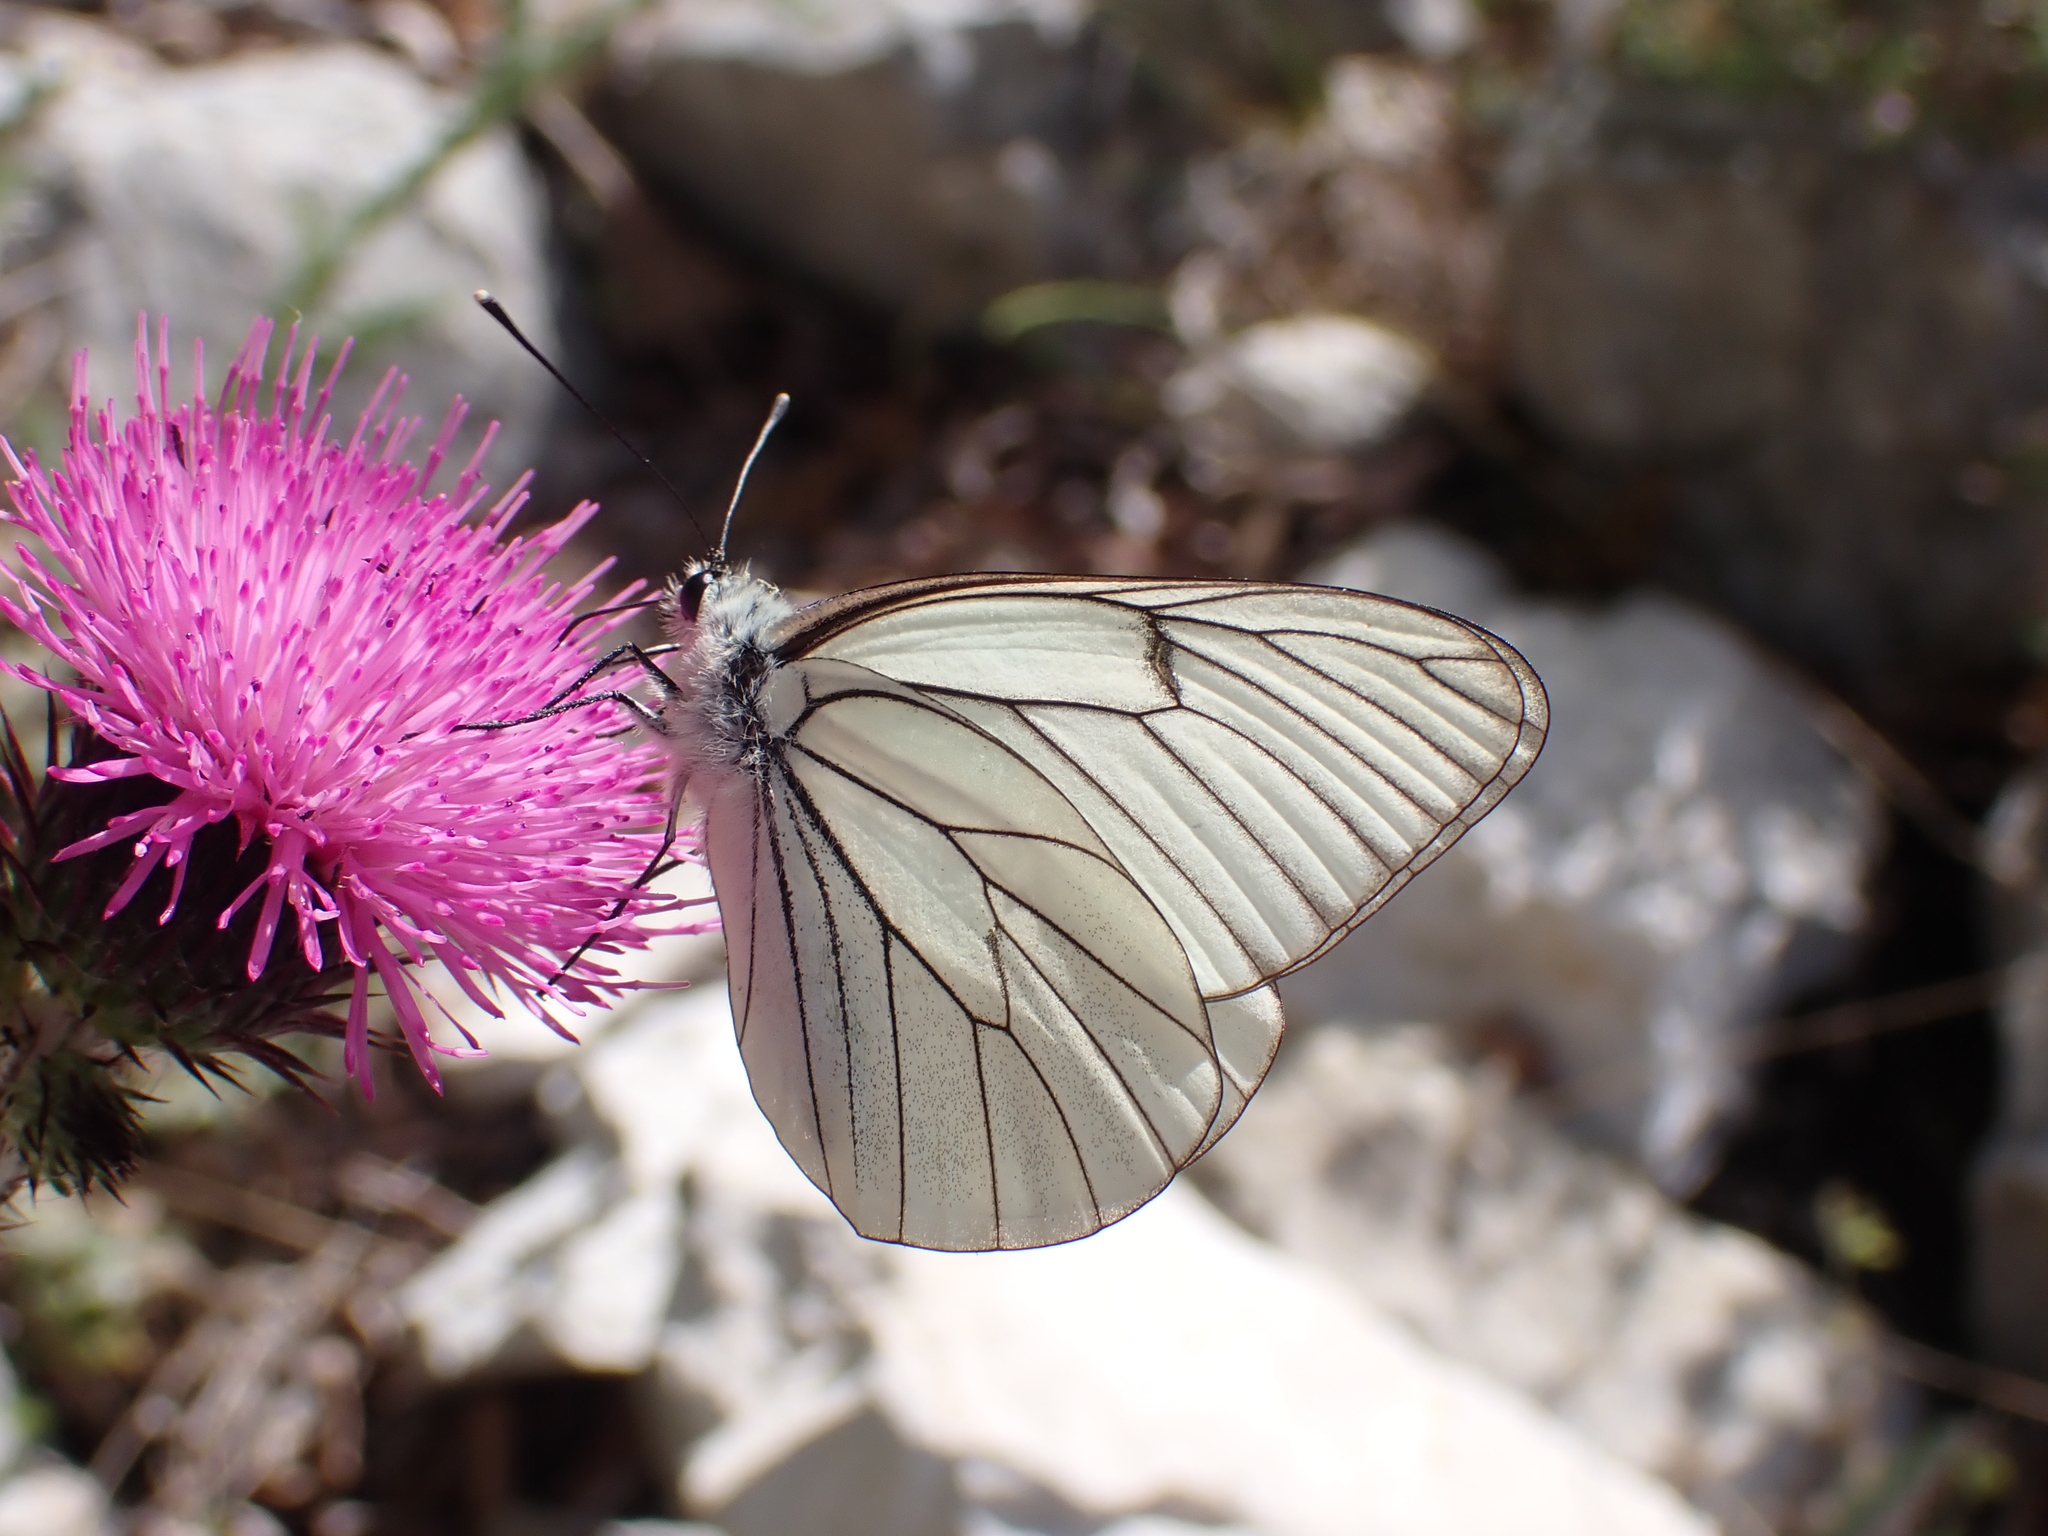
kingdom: Animalia
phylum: Arthropoda
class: Insecta
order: Lepidoptera
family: Pieridae
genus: Aporia
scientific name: Aporia crataegi
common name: Black-veined white
